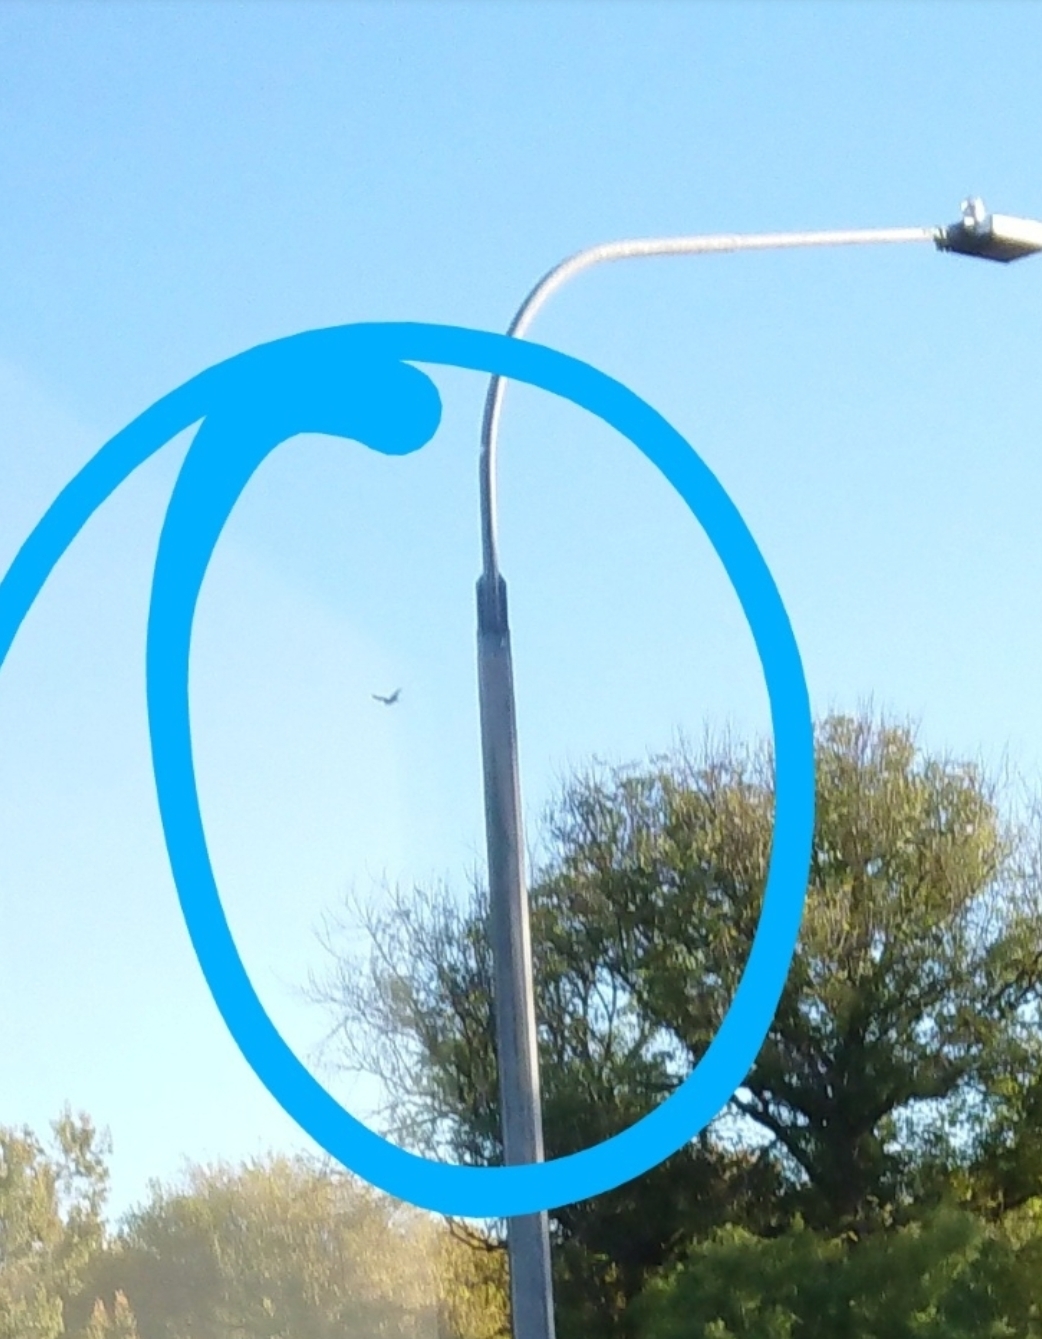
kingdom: Animalia
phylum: Chordata
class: Aves
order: Accipitriformes
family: Accipitridae
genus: Circus
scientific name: Circus approximans
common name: Swamp harrier
